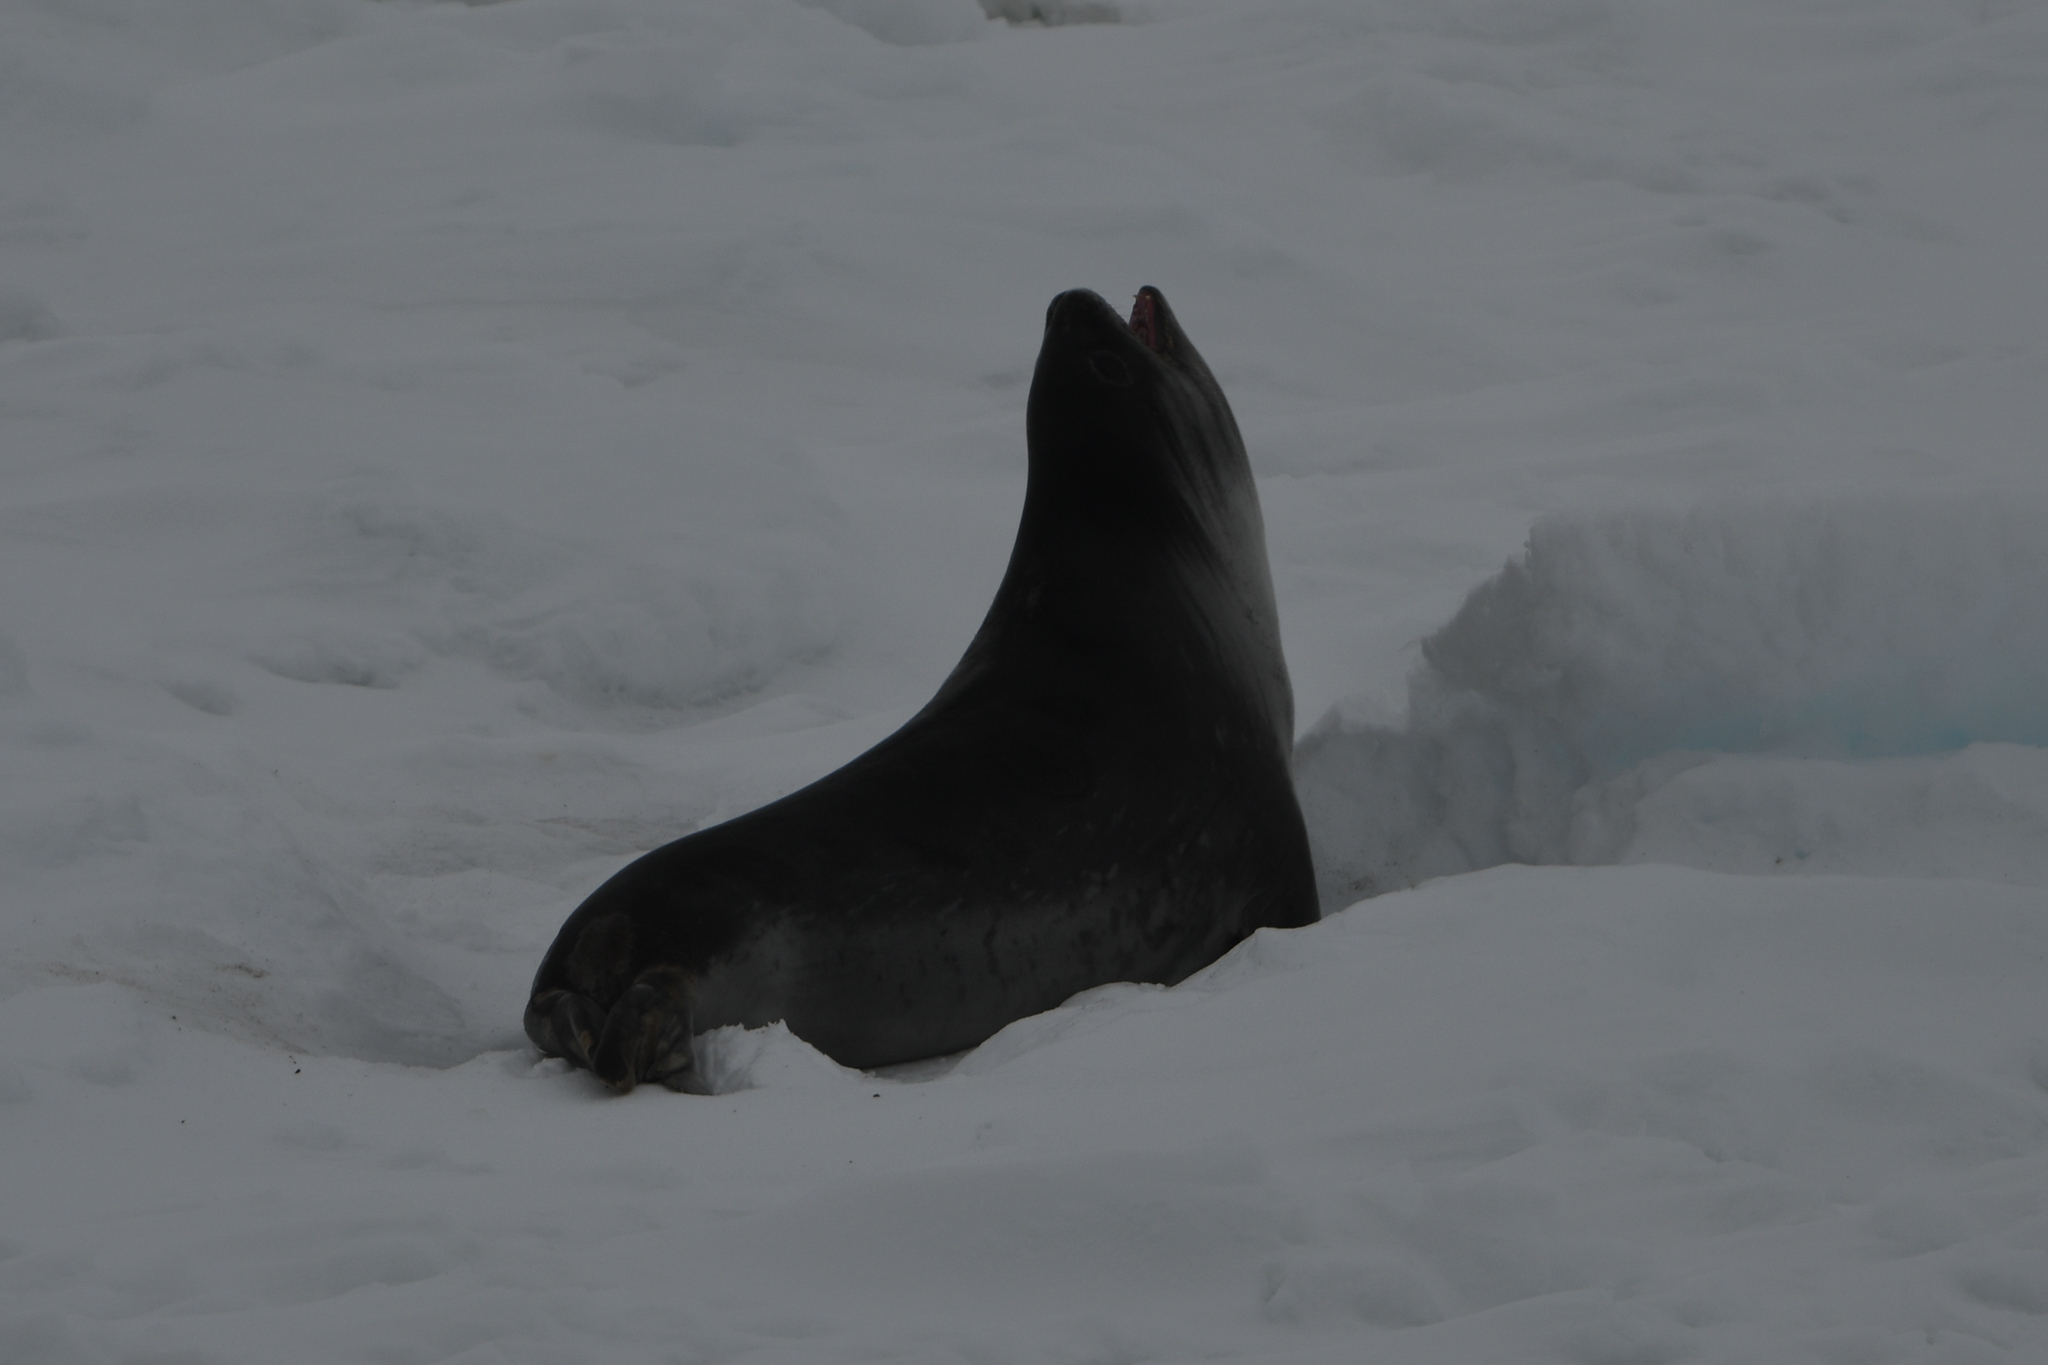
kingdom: Animalia
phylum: Chordata
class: Mammalia
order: Carnivora
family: Phocidae
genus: Ommatophoca
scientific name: Ommatophoca rossii
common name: Ross seal
